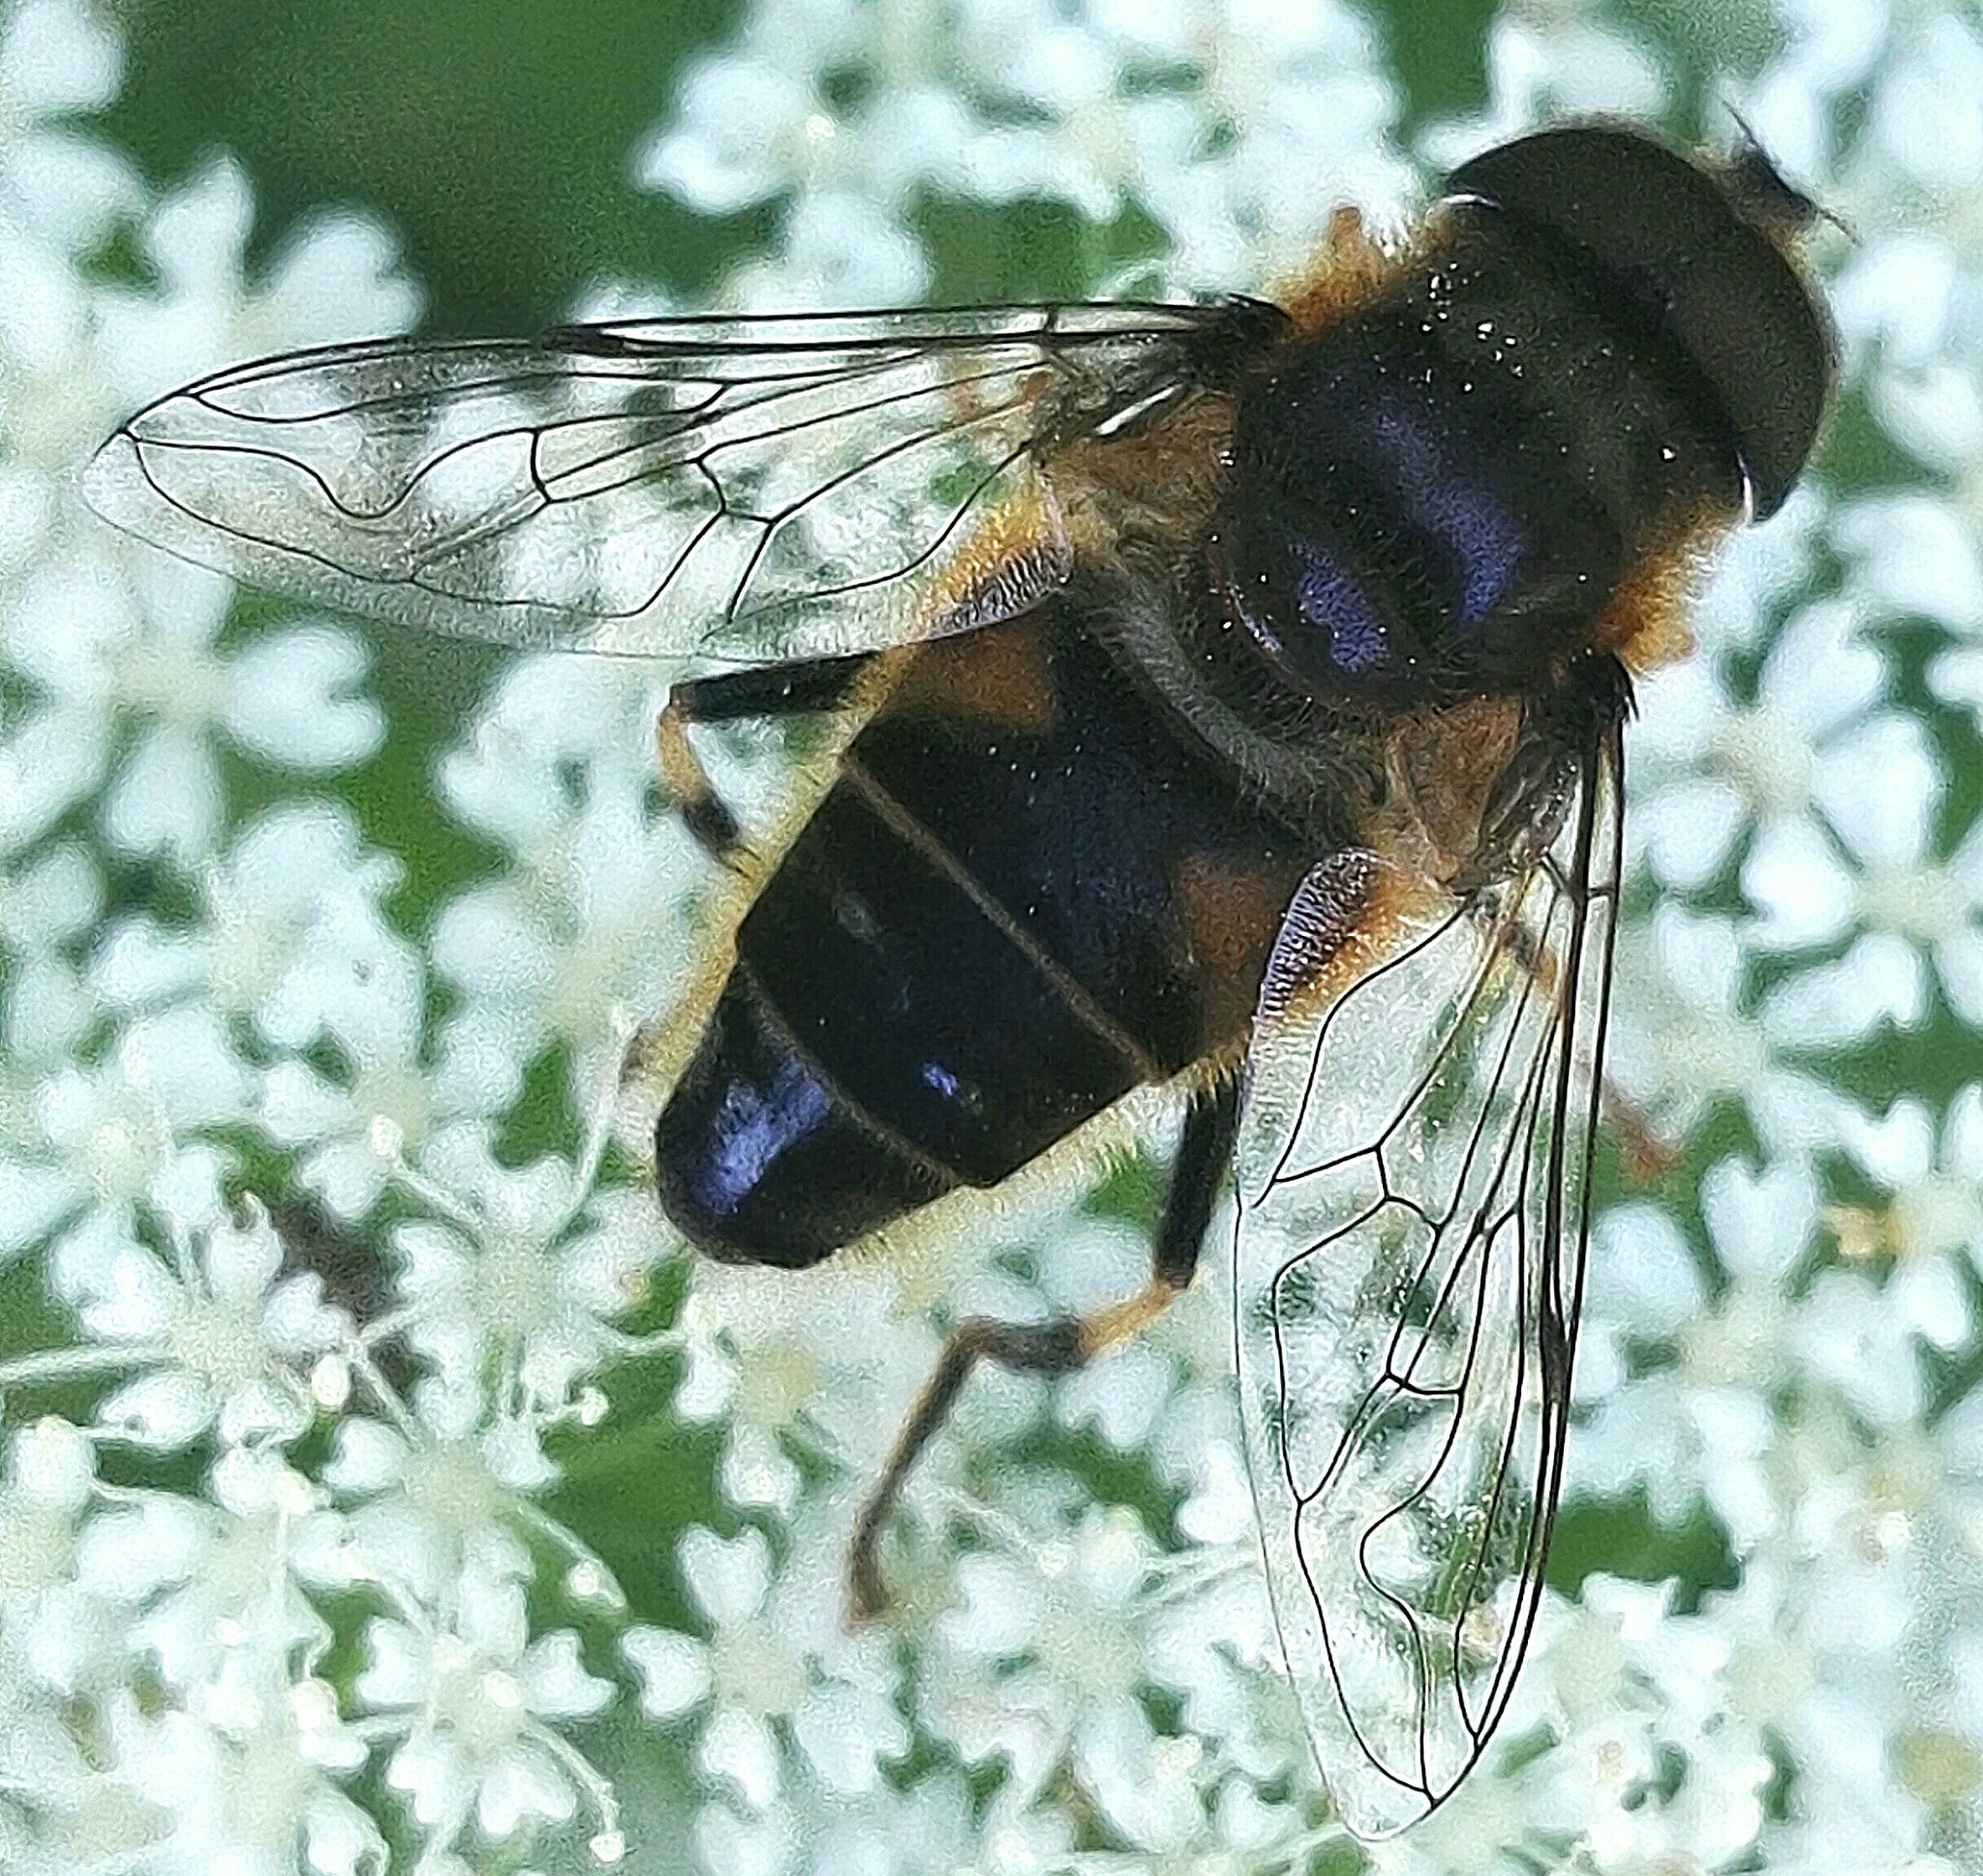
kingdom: Animalia
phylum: Arthropoda
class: Insecta
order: Diptera
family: Syrphidae
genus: Eristalis
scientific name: Eristalis pertinax
